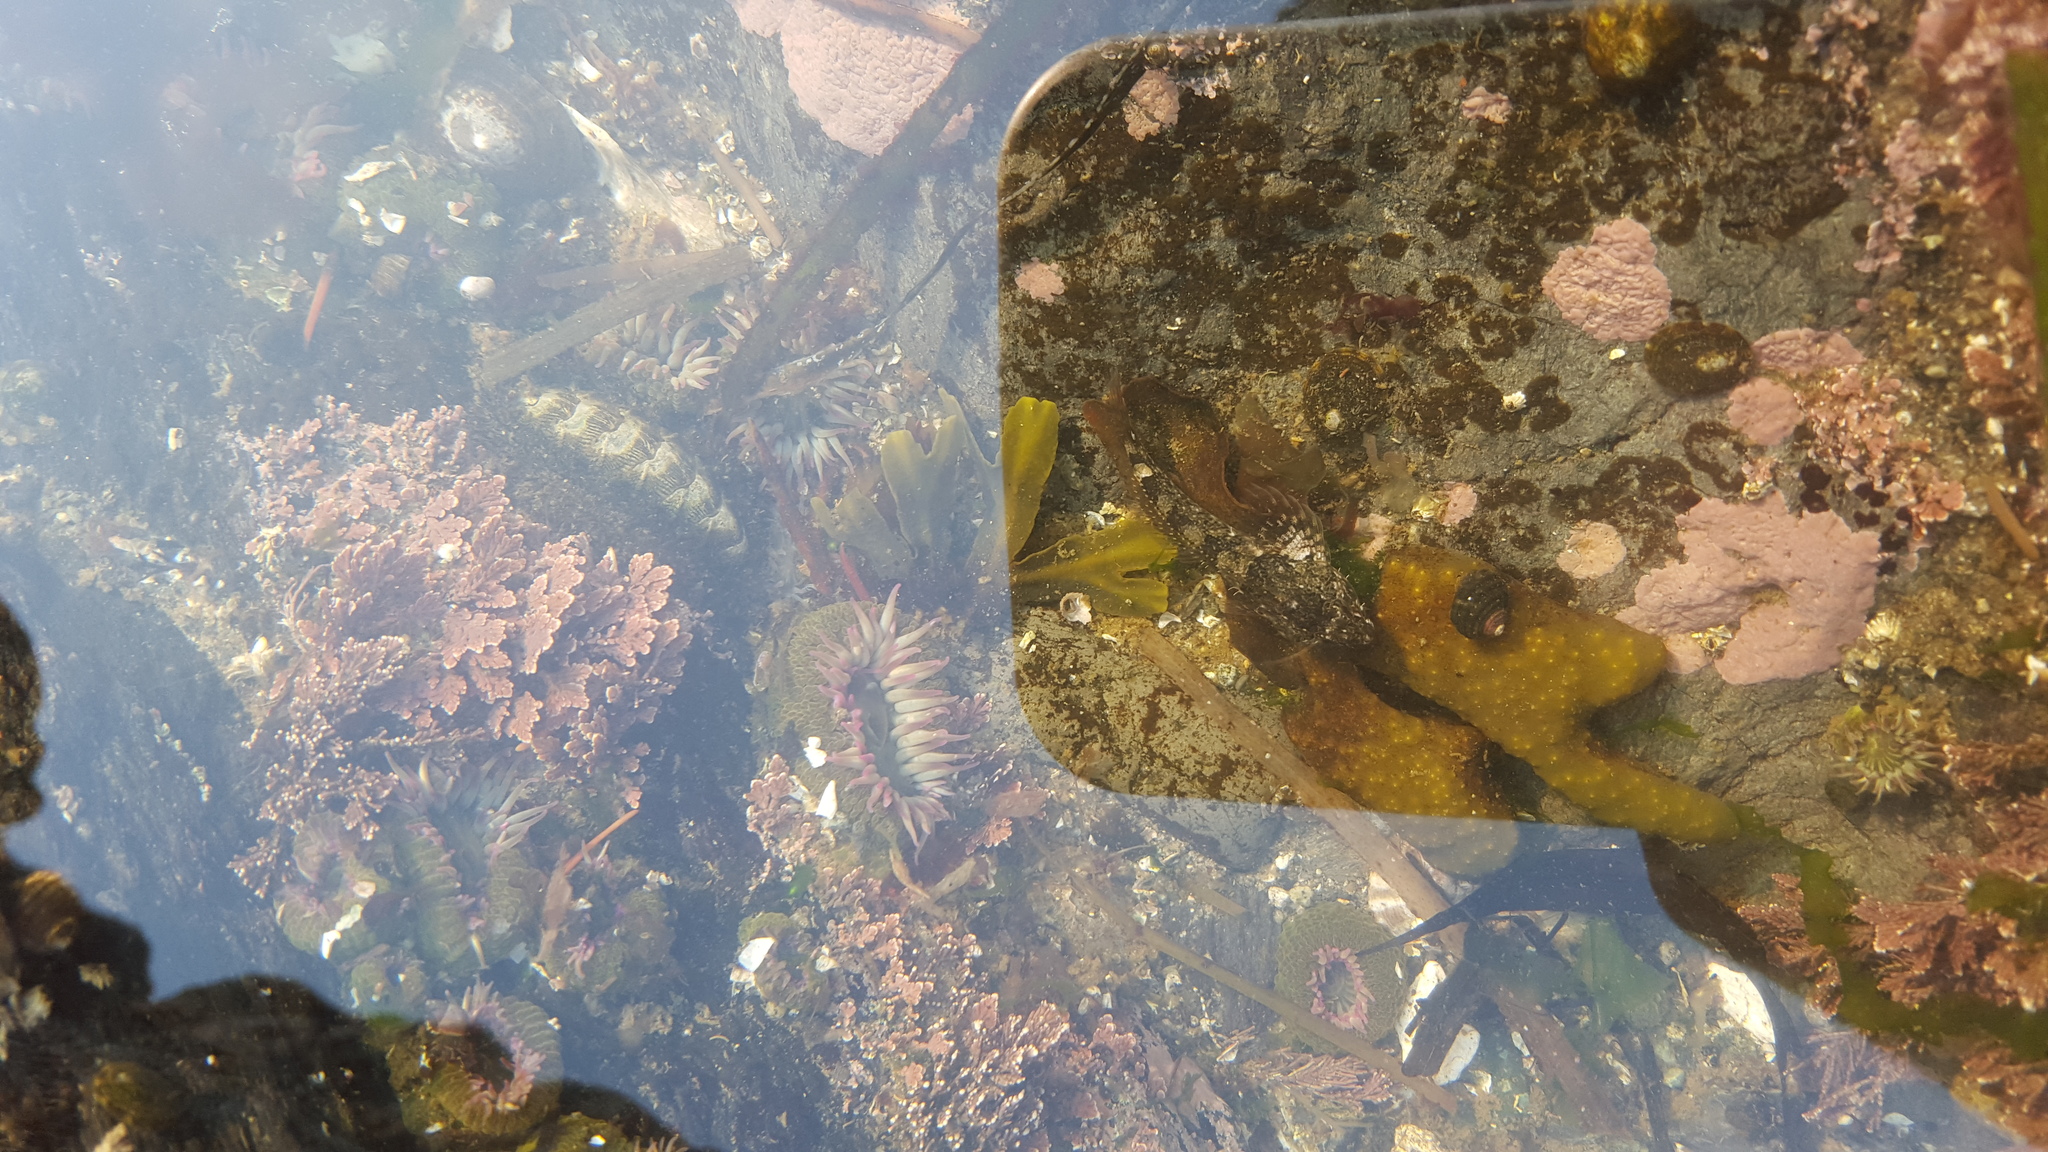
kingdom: Animalia
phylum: Mollusca
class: Polyplacophora
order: Chitonida
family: Mopaliidae
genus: Mopalia
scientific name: Mopalia muscosa
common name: Mossy chiton
